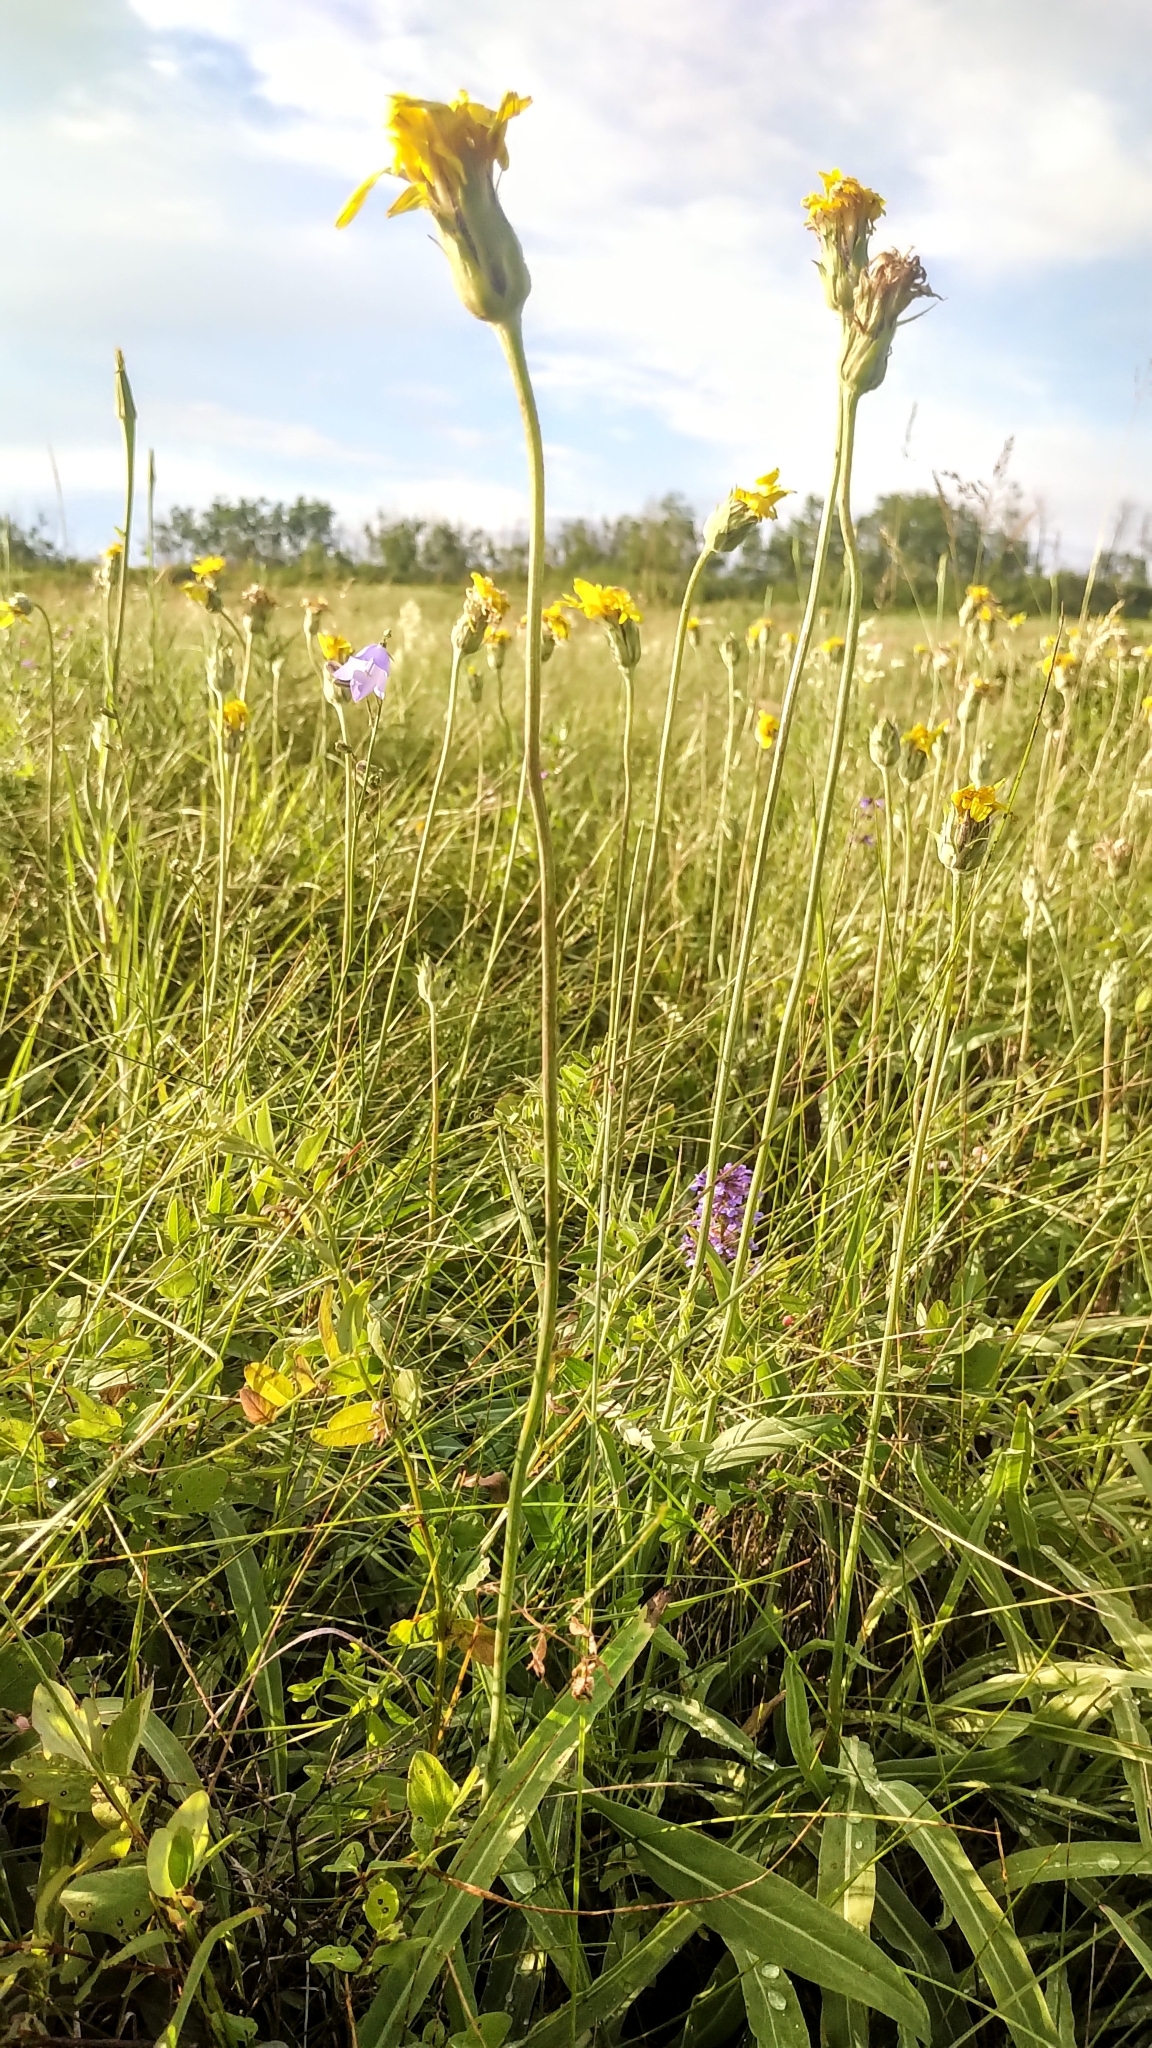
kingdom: Plantae
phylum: Tracheophyta
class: Magnoliopsida
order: Asterales
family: Asteraceae
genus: Agoseris
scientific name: Agoseris glauca
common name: Prairie agoseris
